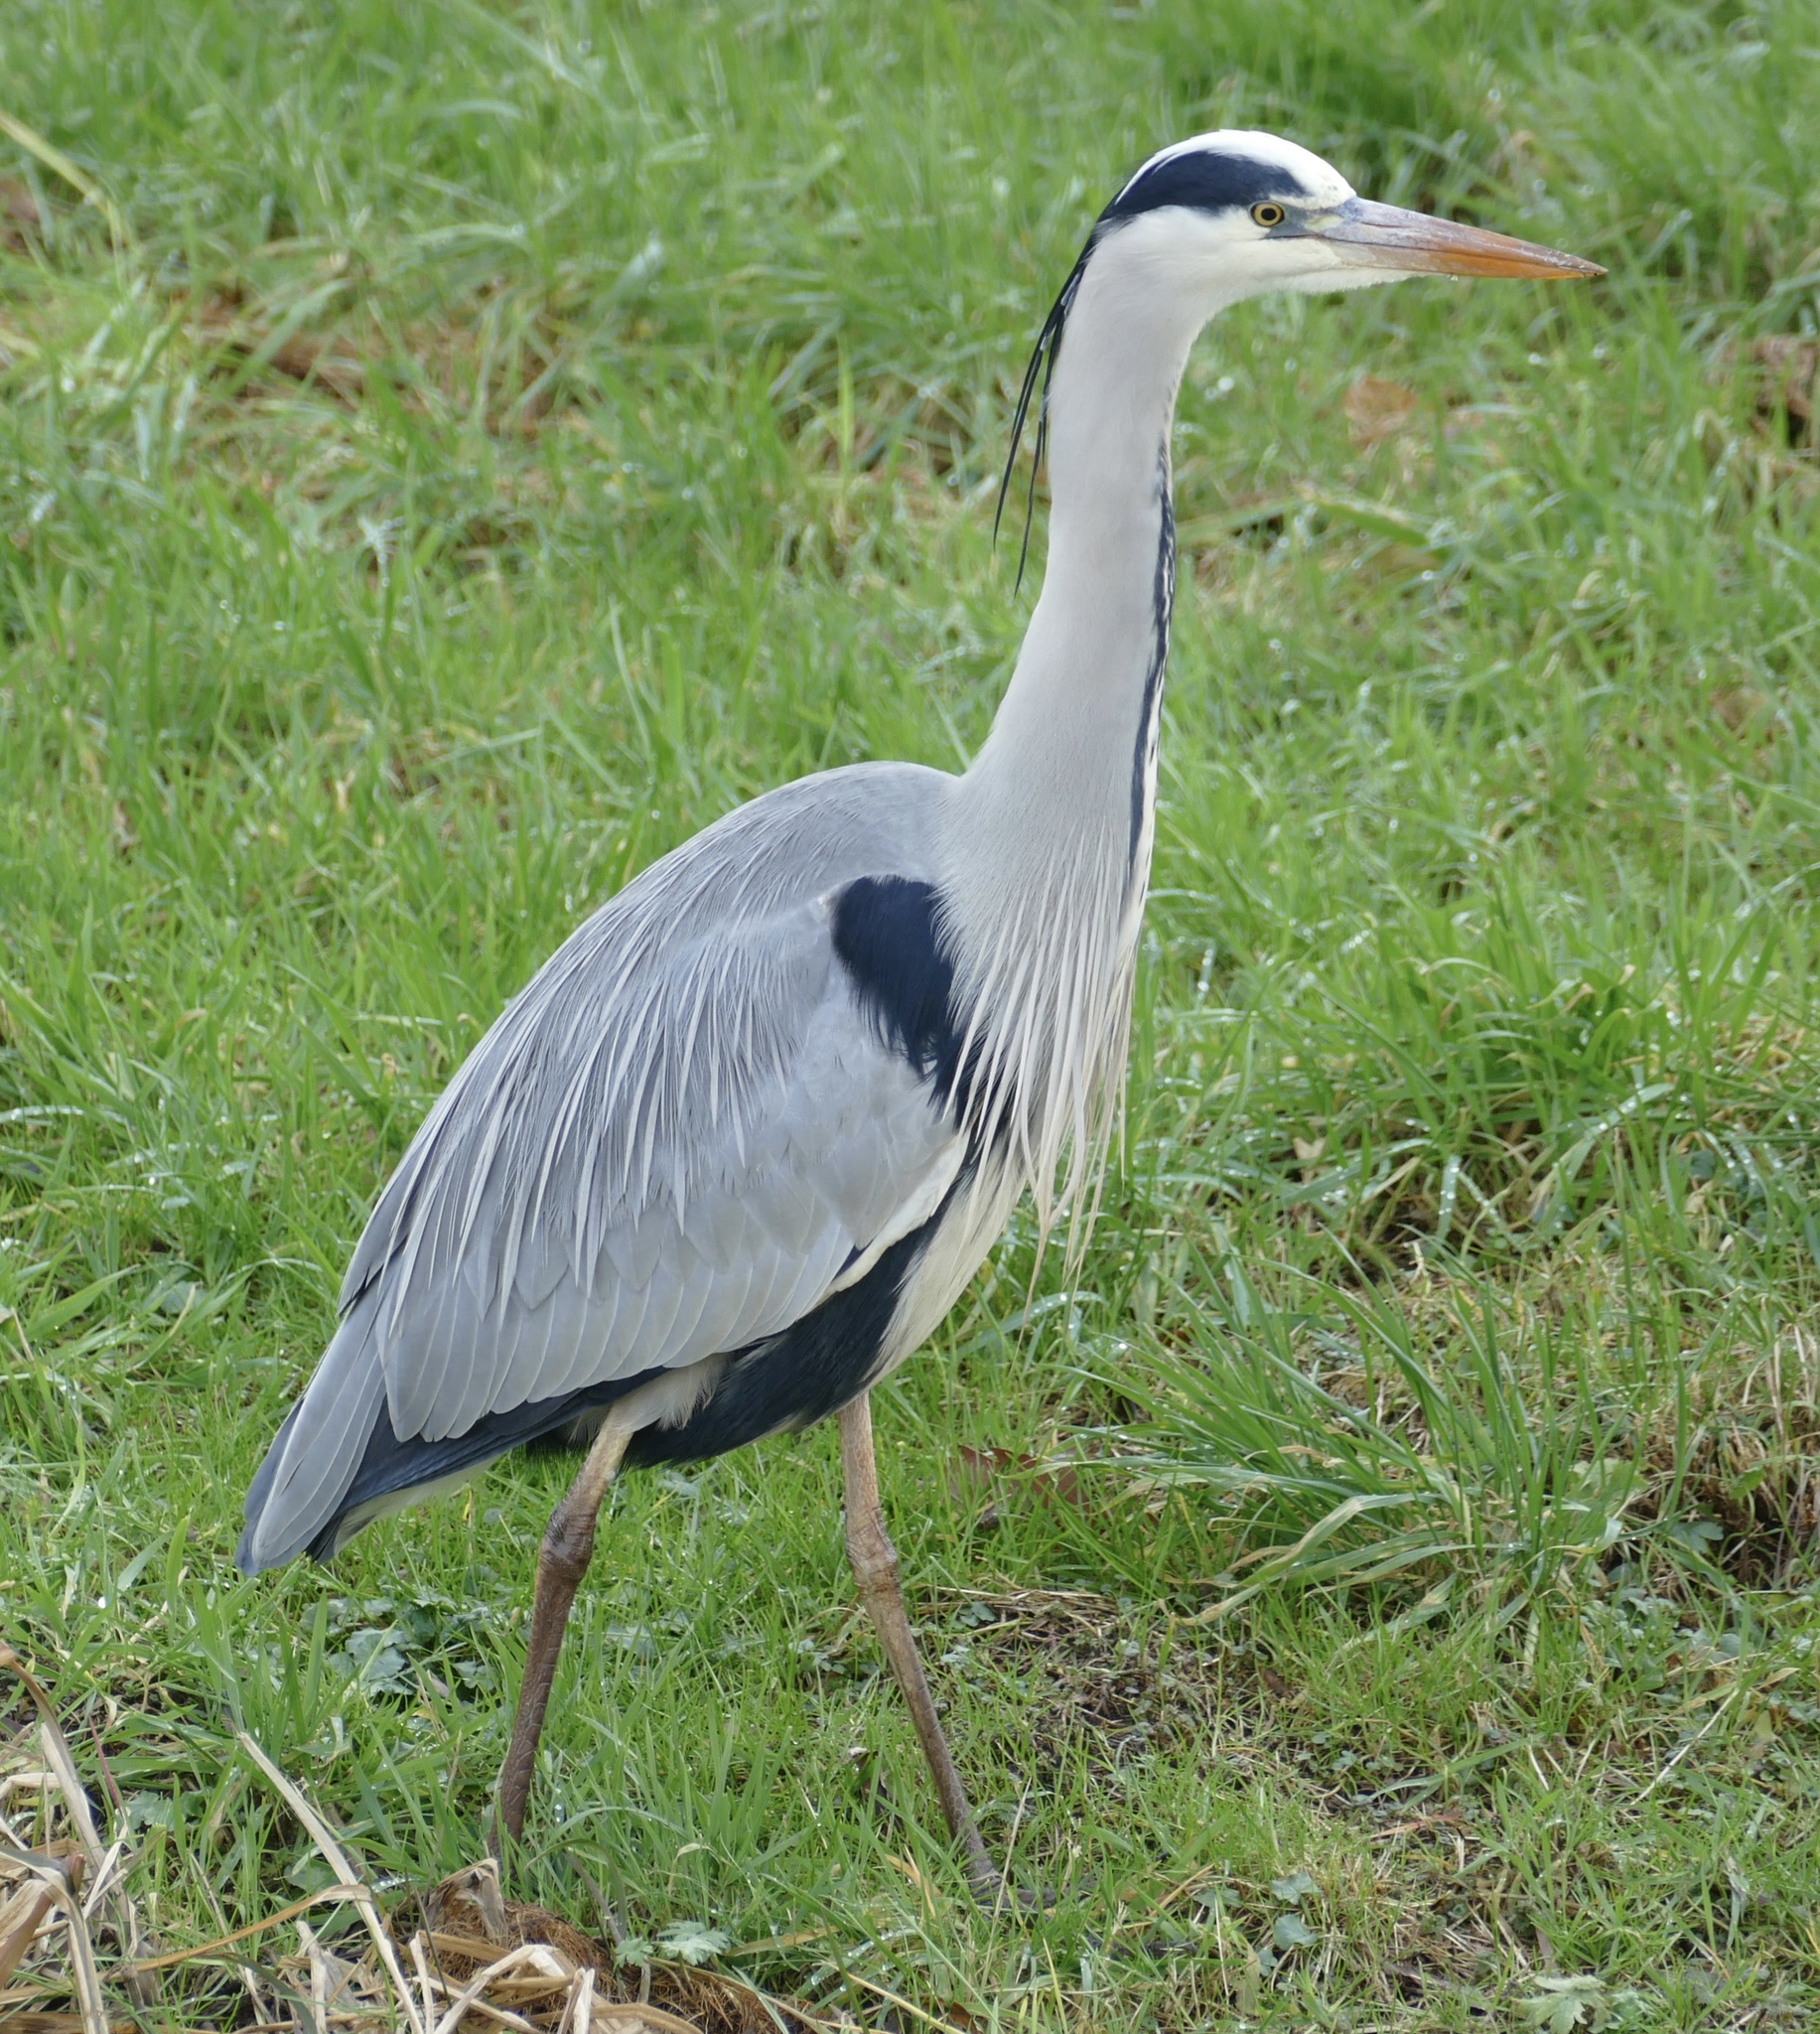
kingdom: Animalia
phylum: Chordata
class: Aves
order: Pelecaniformes
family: Ardeidae
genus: Ardea
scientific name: Ardea cinerea
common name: Grey heron
